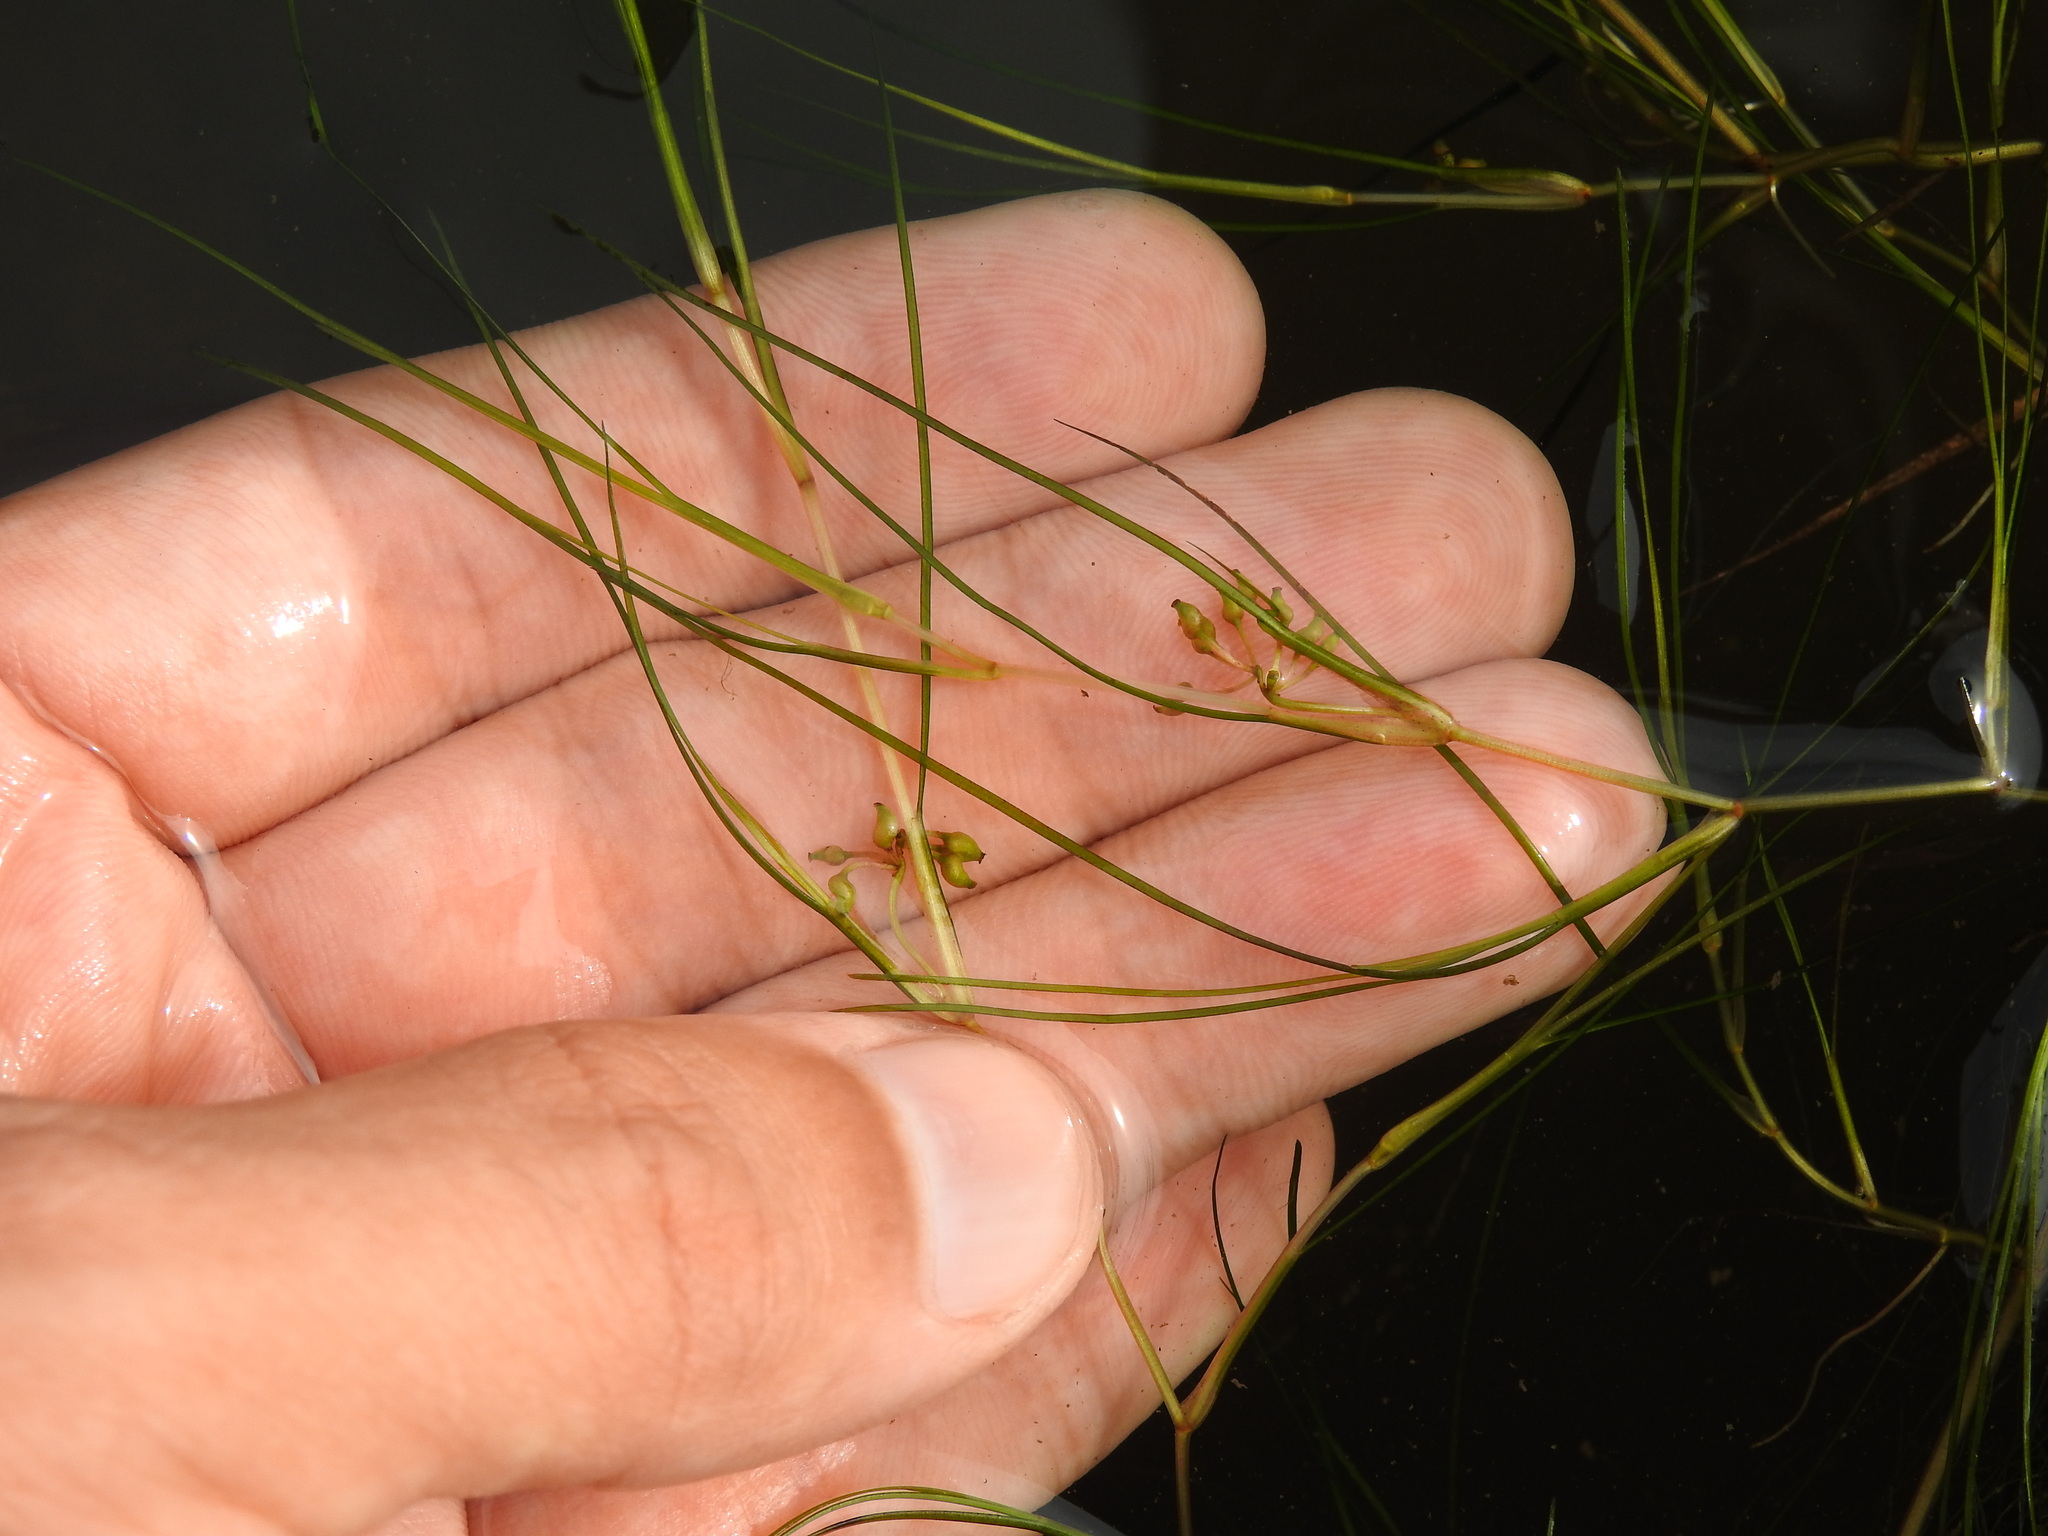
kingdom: Plantae
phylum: Tracheophyta
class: Liliopsida
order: Alismatales
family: Ruppiaceae
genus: Ruppia
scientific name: Ruppia maritima
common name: Beaked tasselweed
